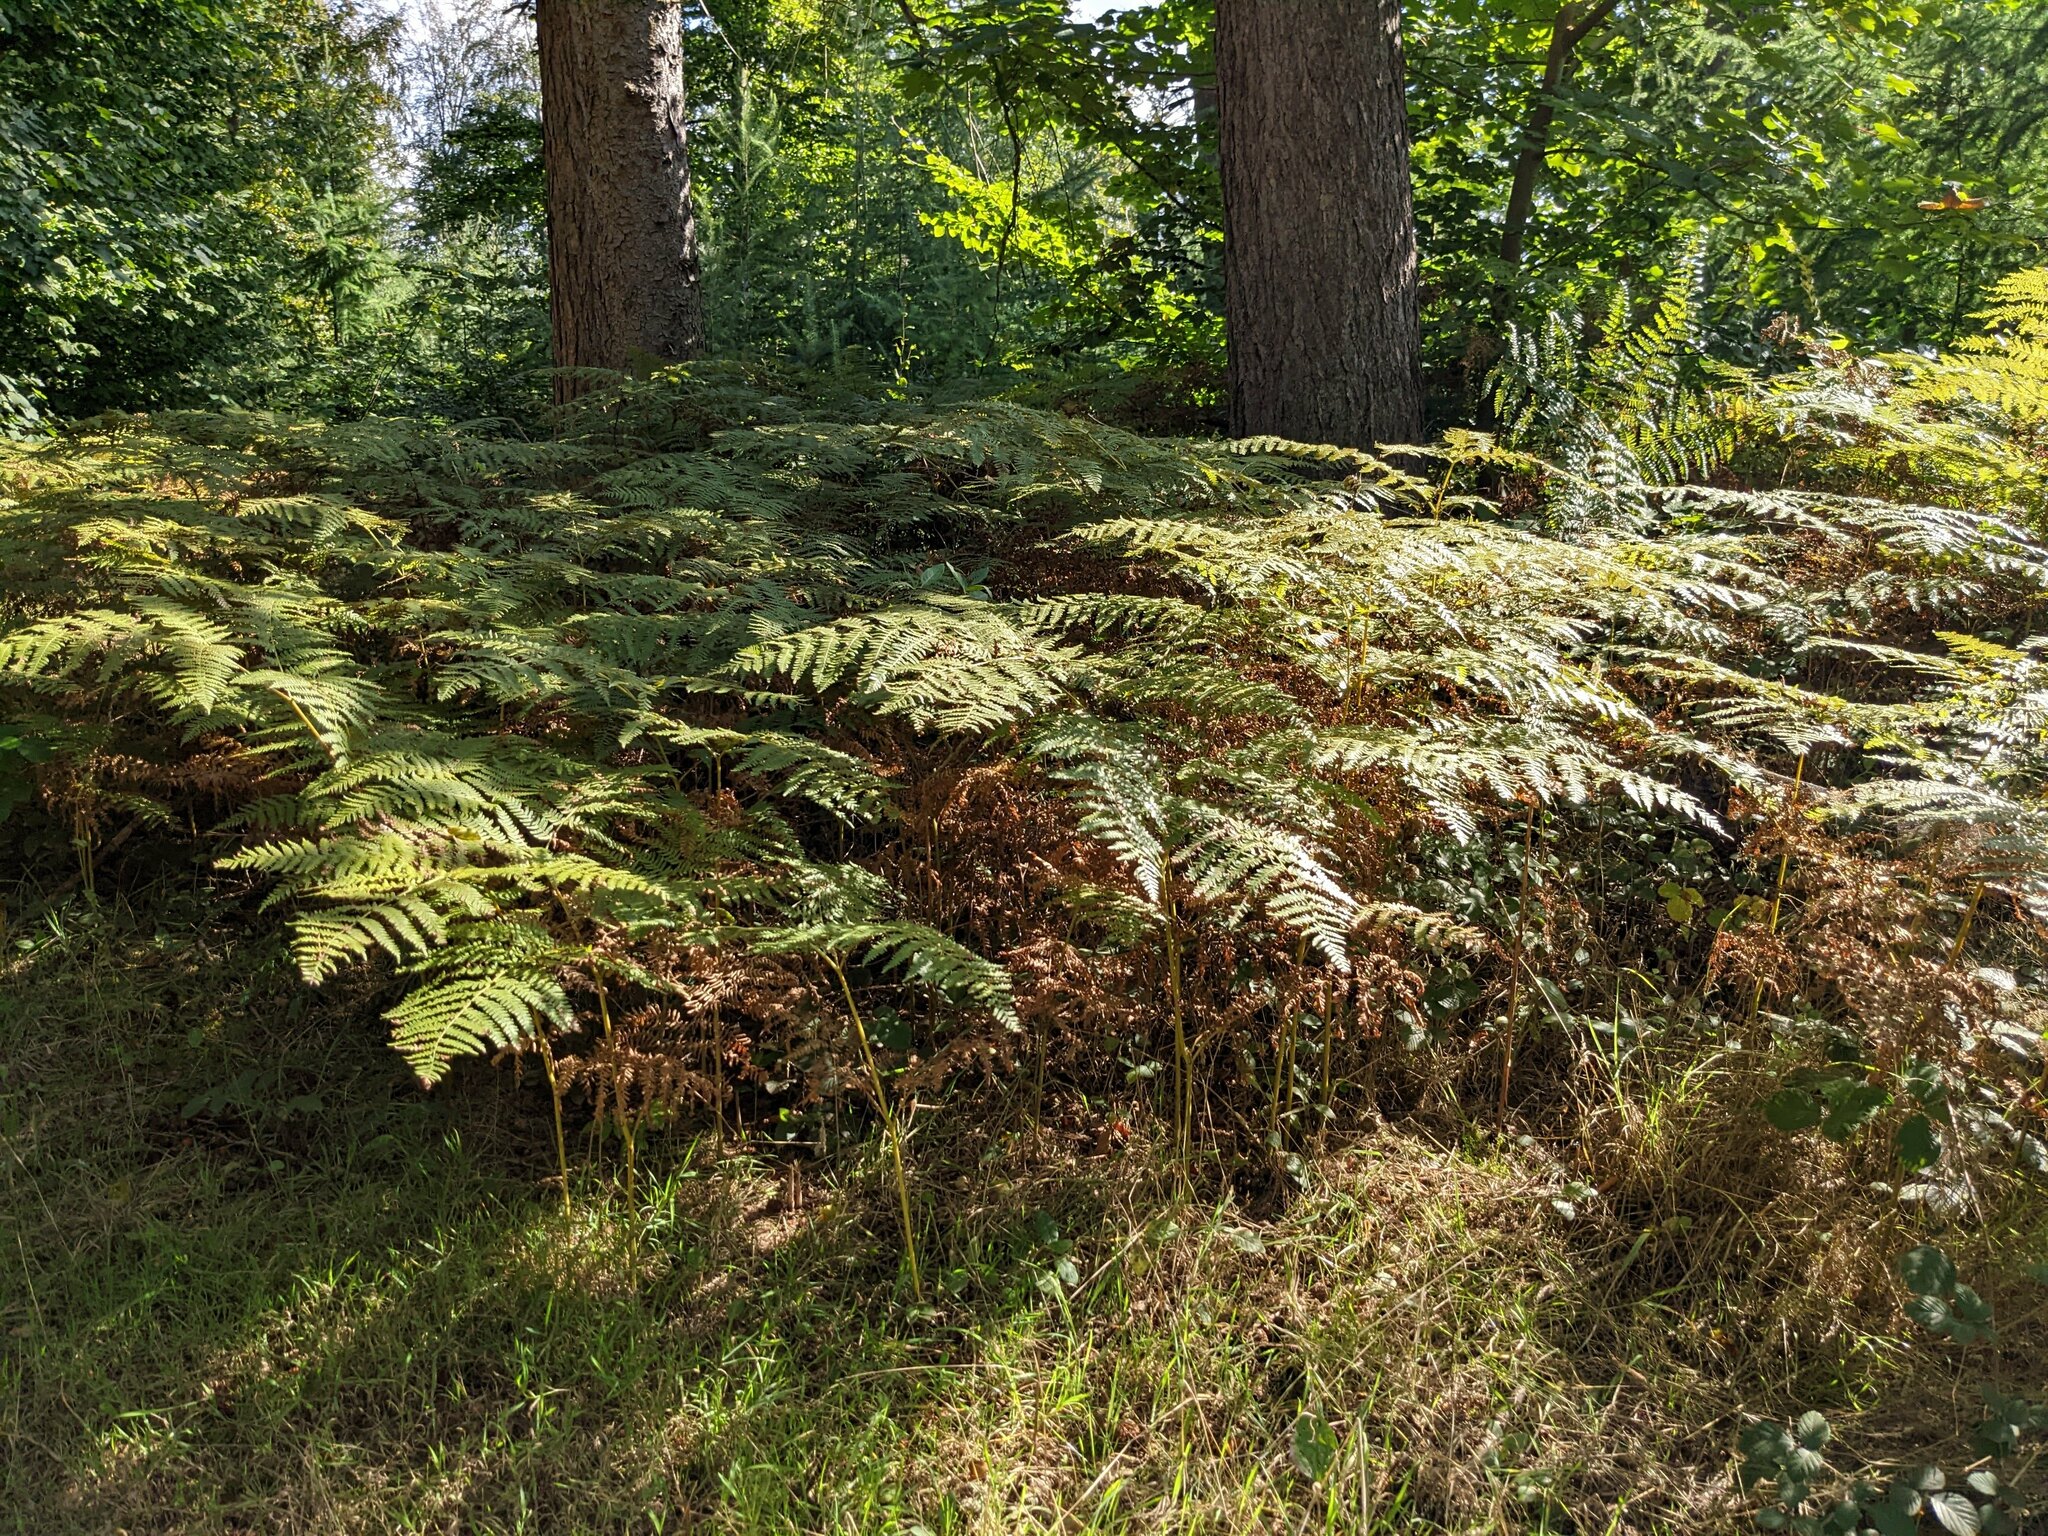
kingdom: Plantae
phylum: Tracheophyta
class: Polypodiopsida
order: Polypodiales
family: Dennstaedtiaceae
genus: Pteridium
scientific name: Pteridium aquilinum
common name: Bracken
